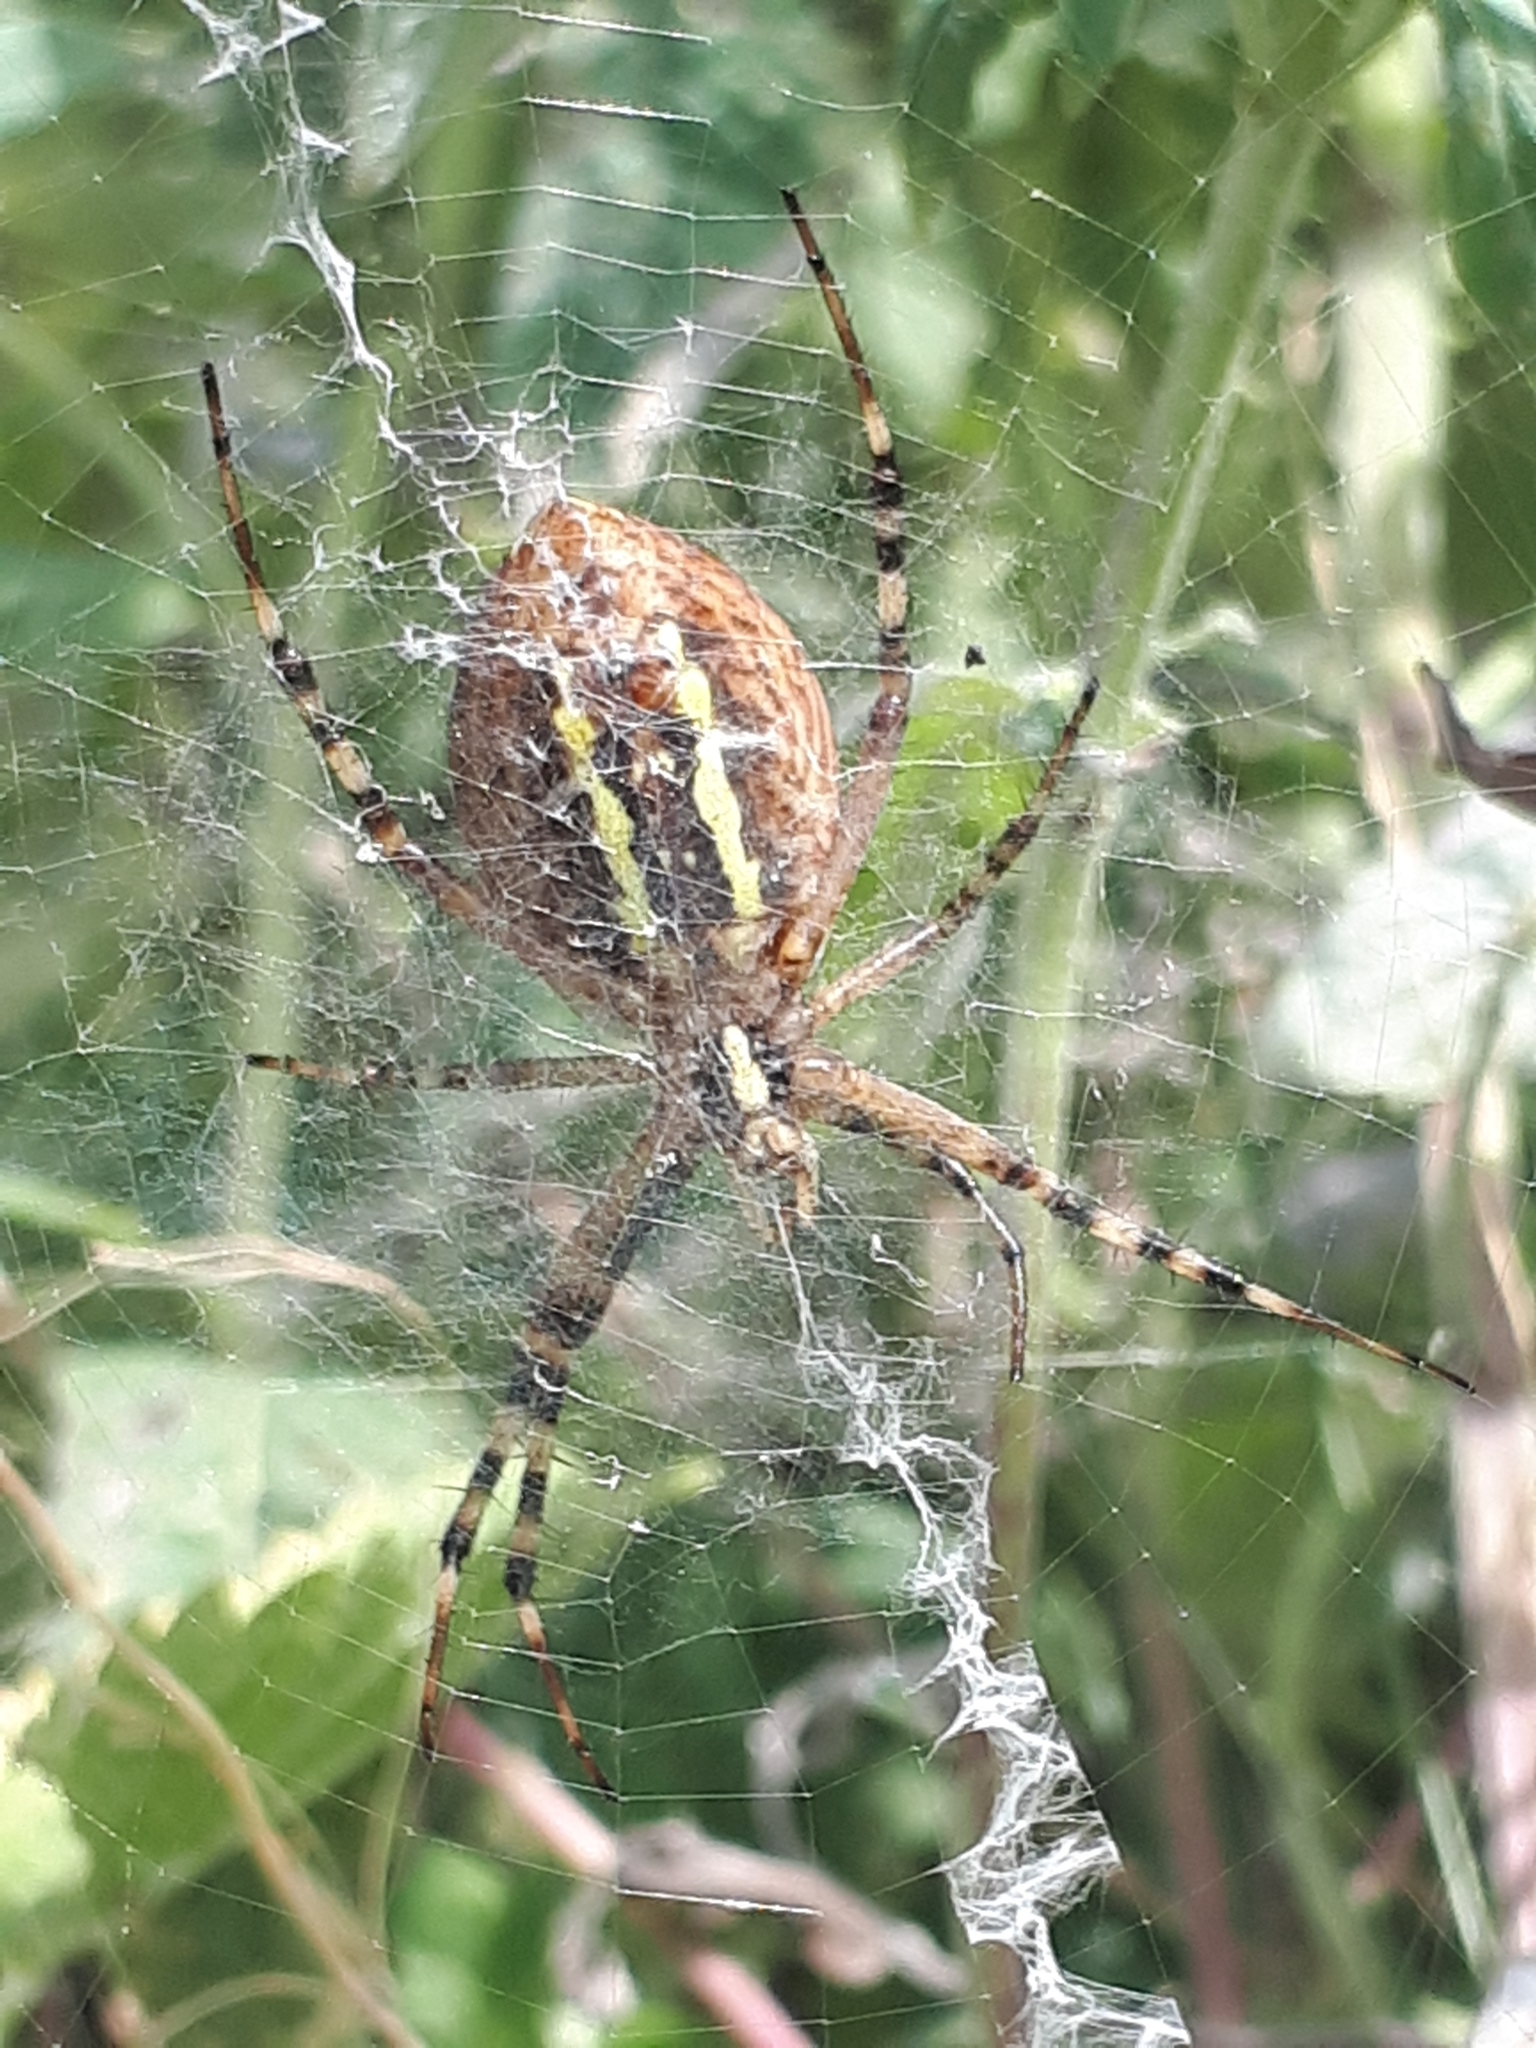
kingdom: Animalia
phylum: Arthropoda
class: Arachnida
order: Araneae
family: Araneidae
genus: Argiope
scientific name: Argiope bruennichi
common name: Wasp spider
